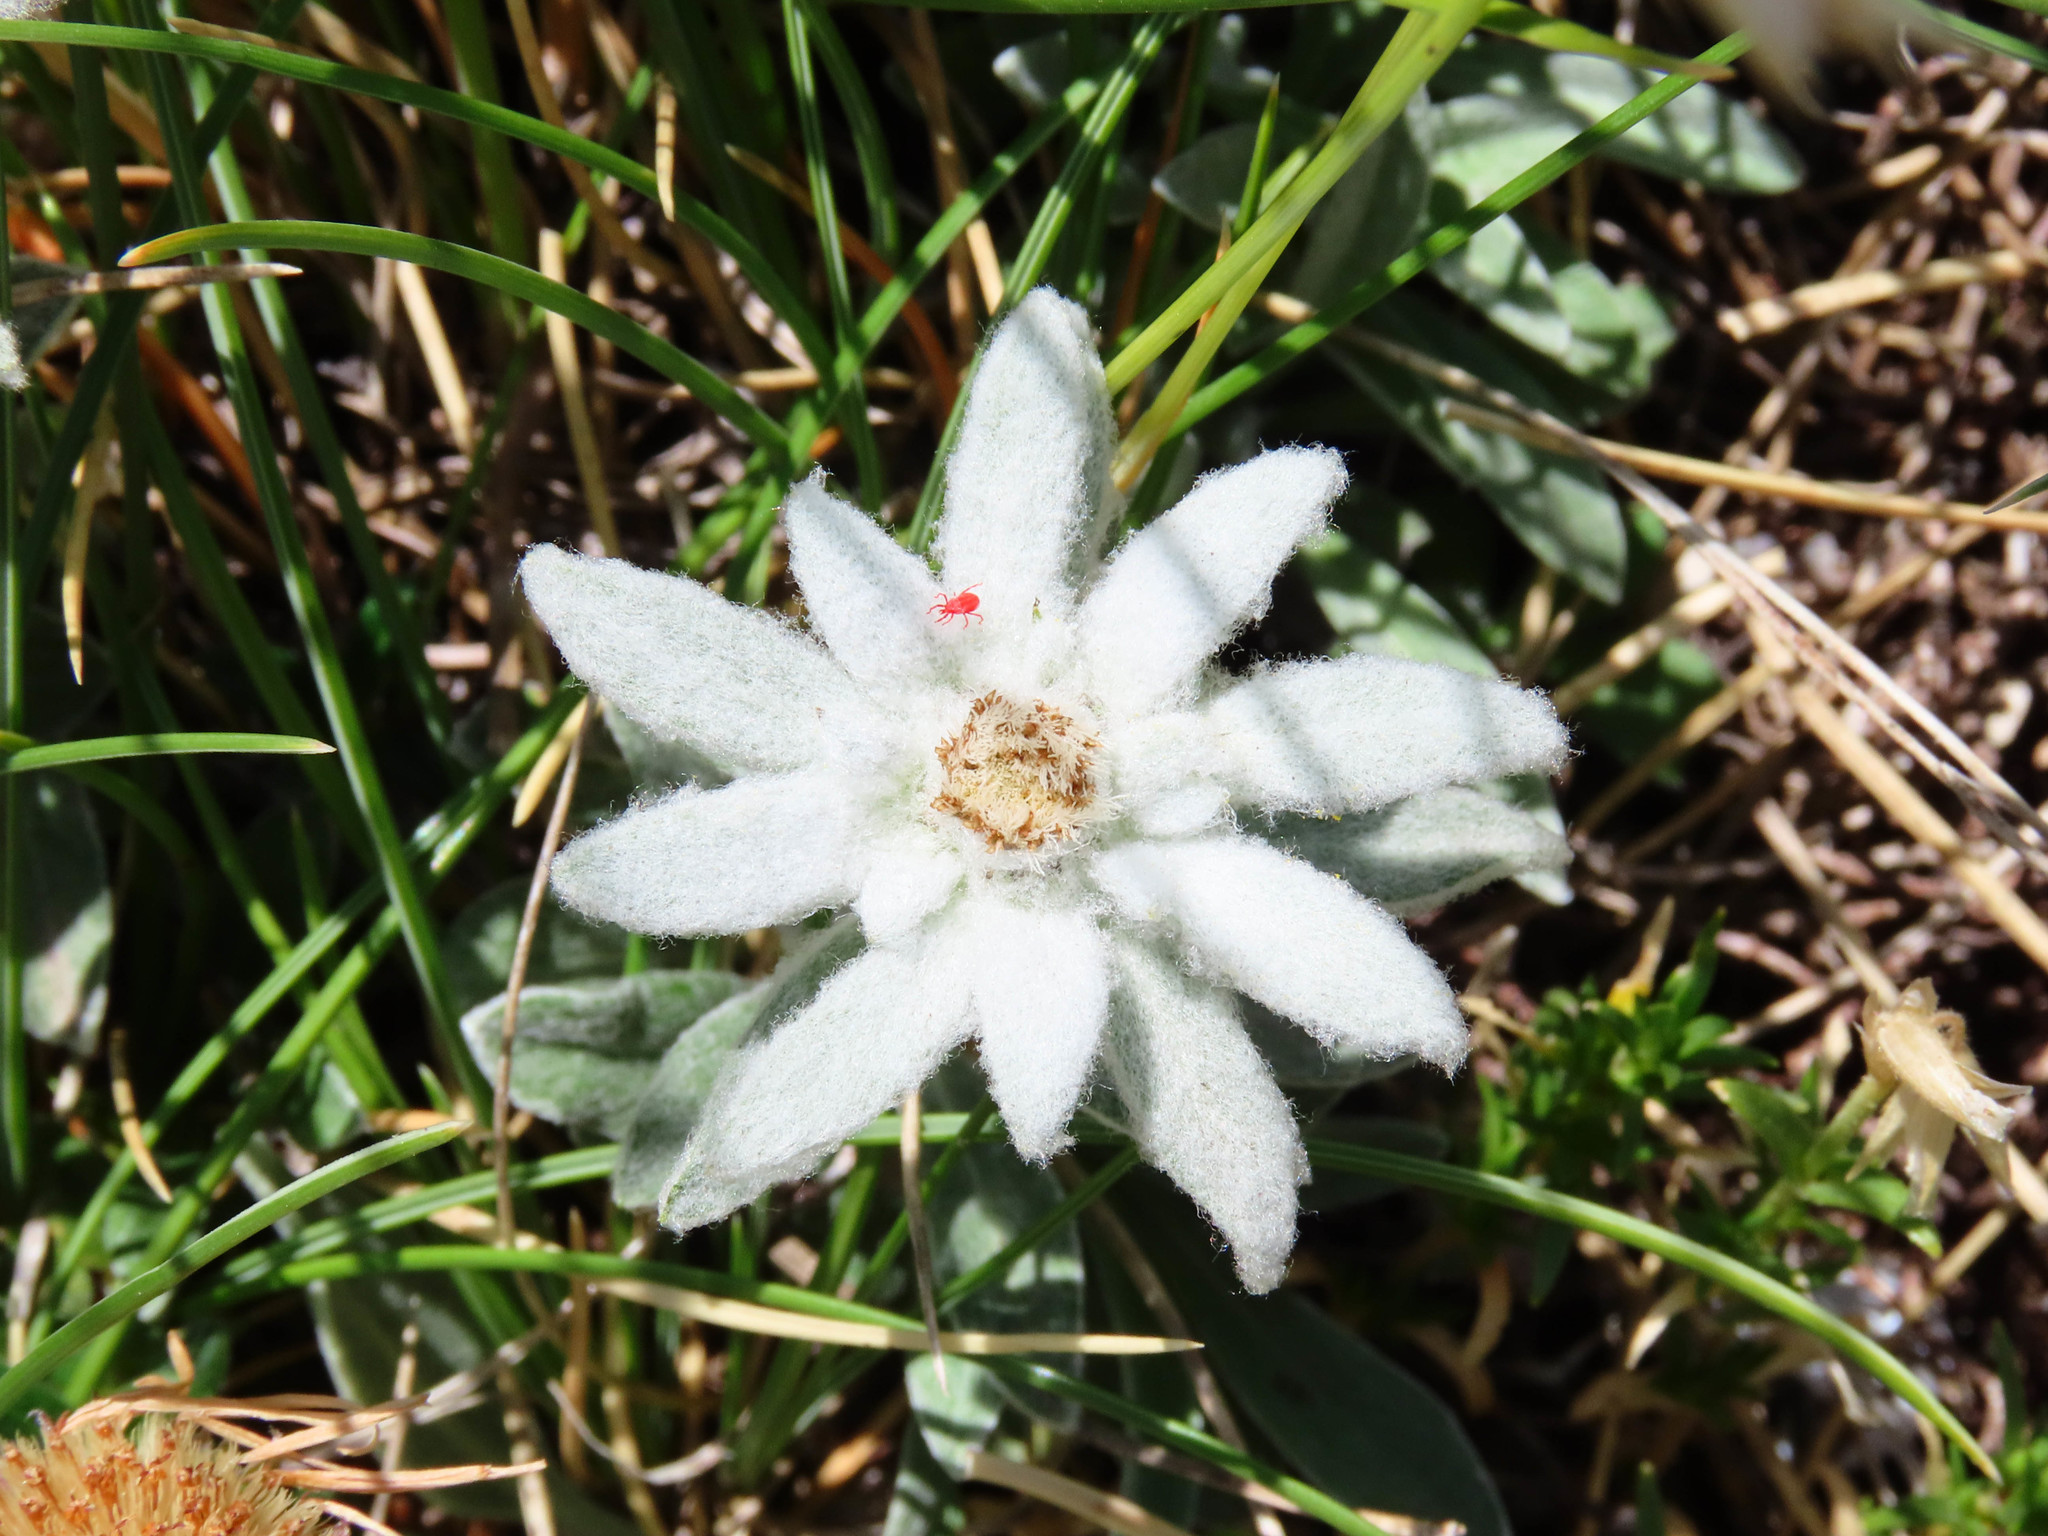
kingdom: Plantae
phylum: Tracheophyta
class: Magnoliopsida
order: Asterales
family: Asteraceae
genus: Leontopodium
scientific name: Leontopodium nivale
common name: Edelweiss
